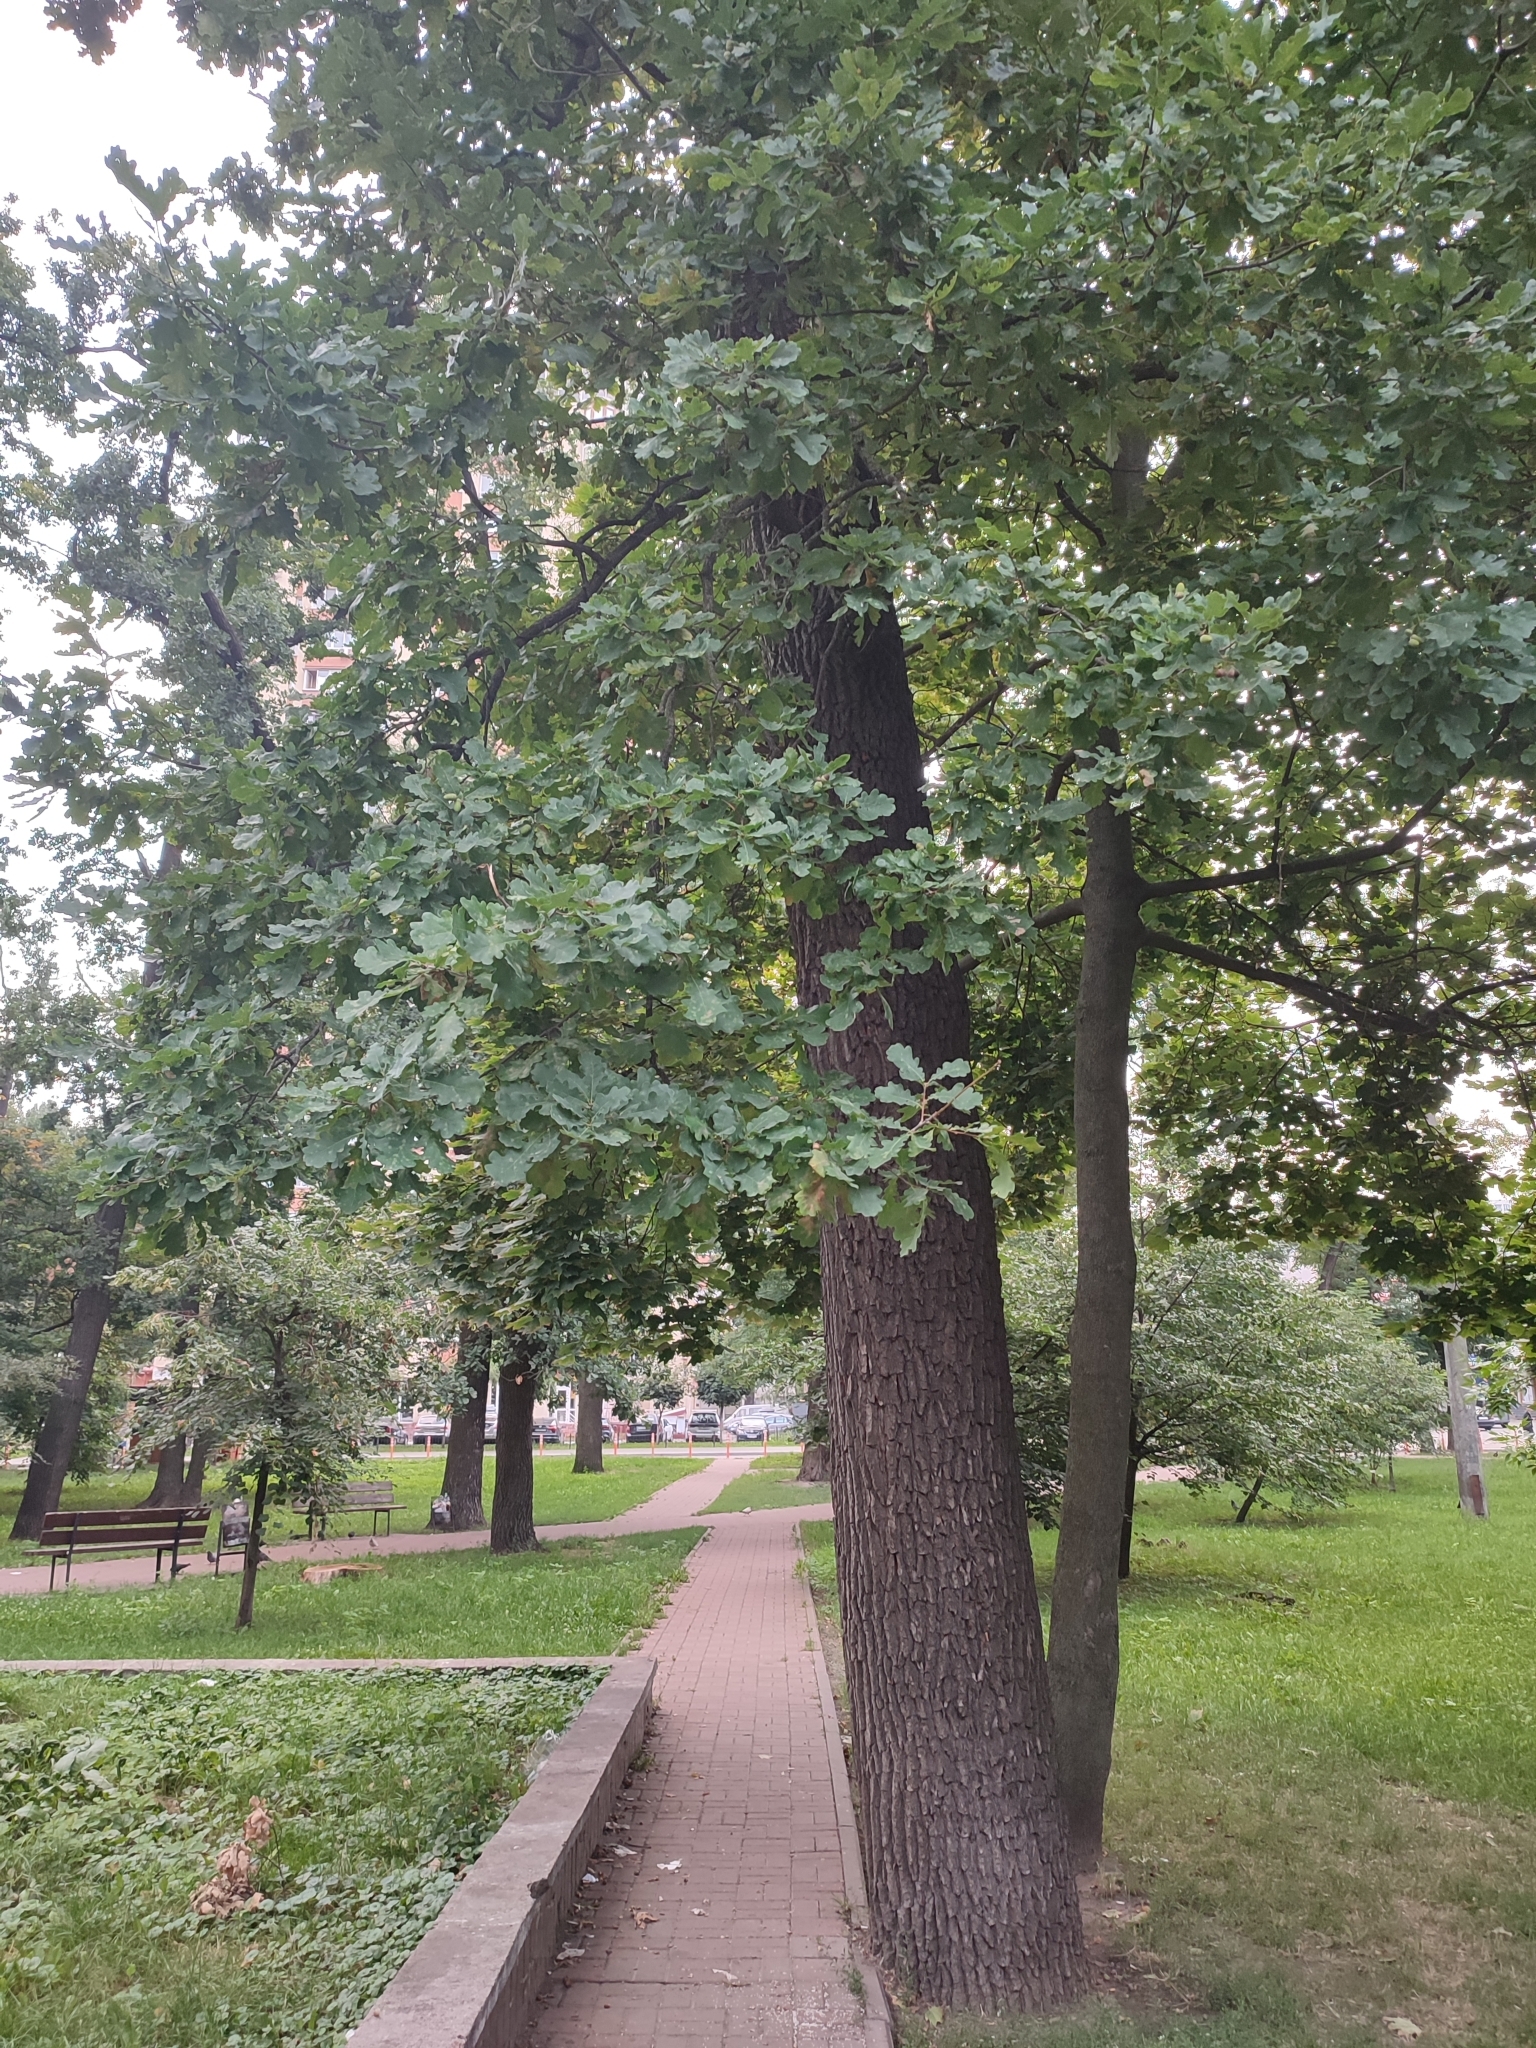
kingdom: Plantae
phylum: Tracheophyta
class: Magnoliopsida
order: Fagales
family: Fagaceae
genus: Quercus
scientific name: Quercus robur
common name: Pedunculate oak
